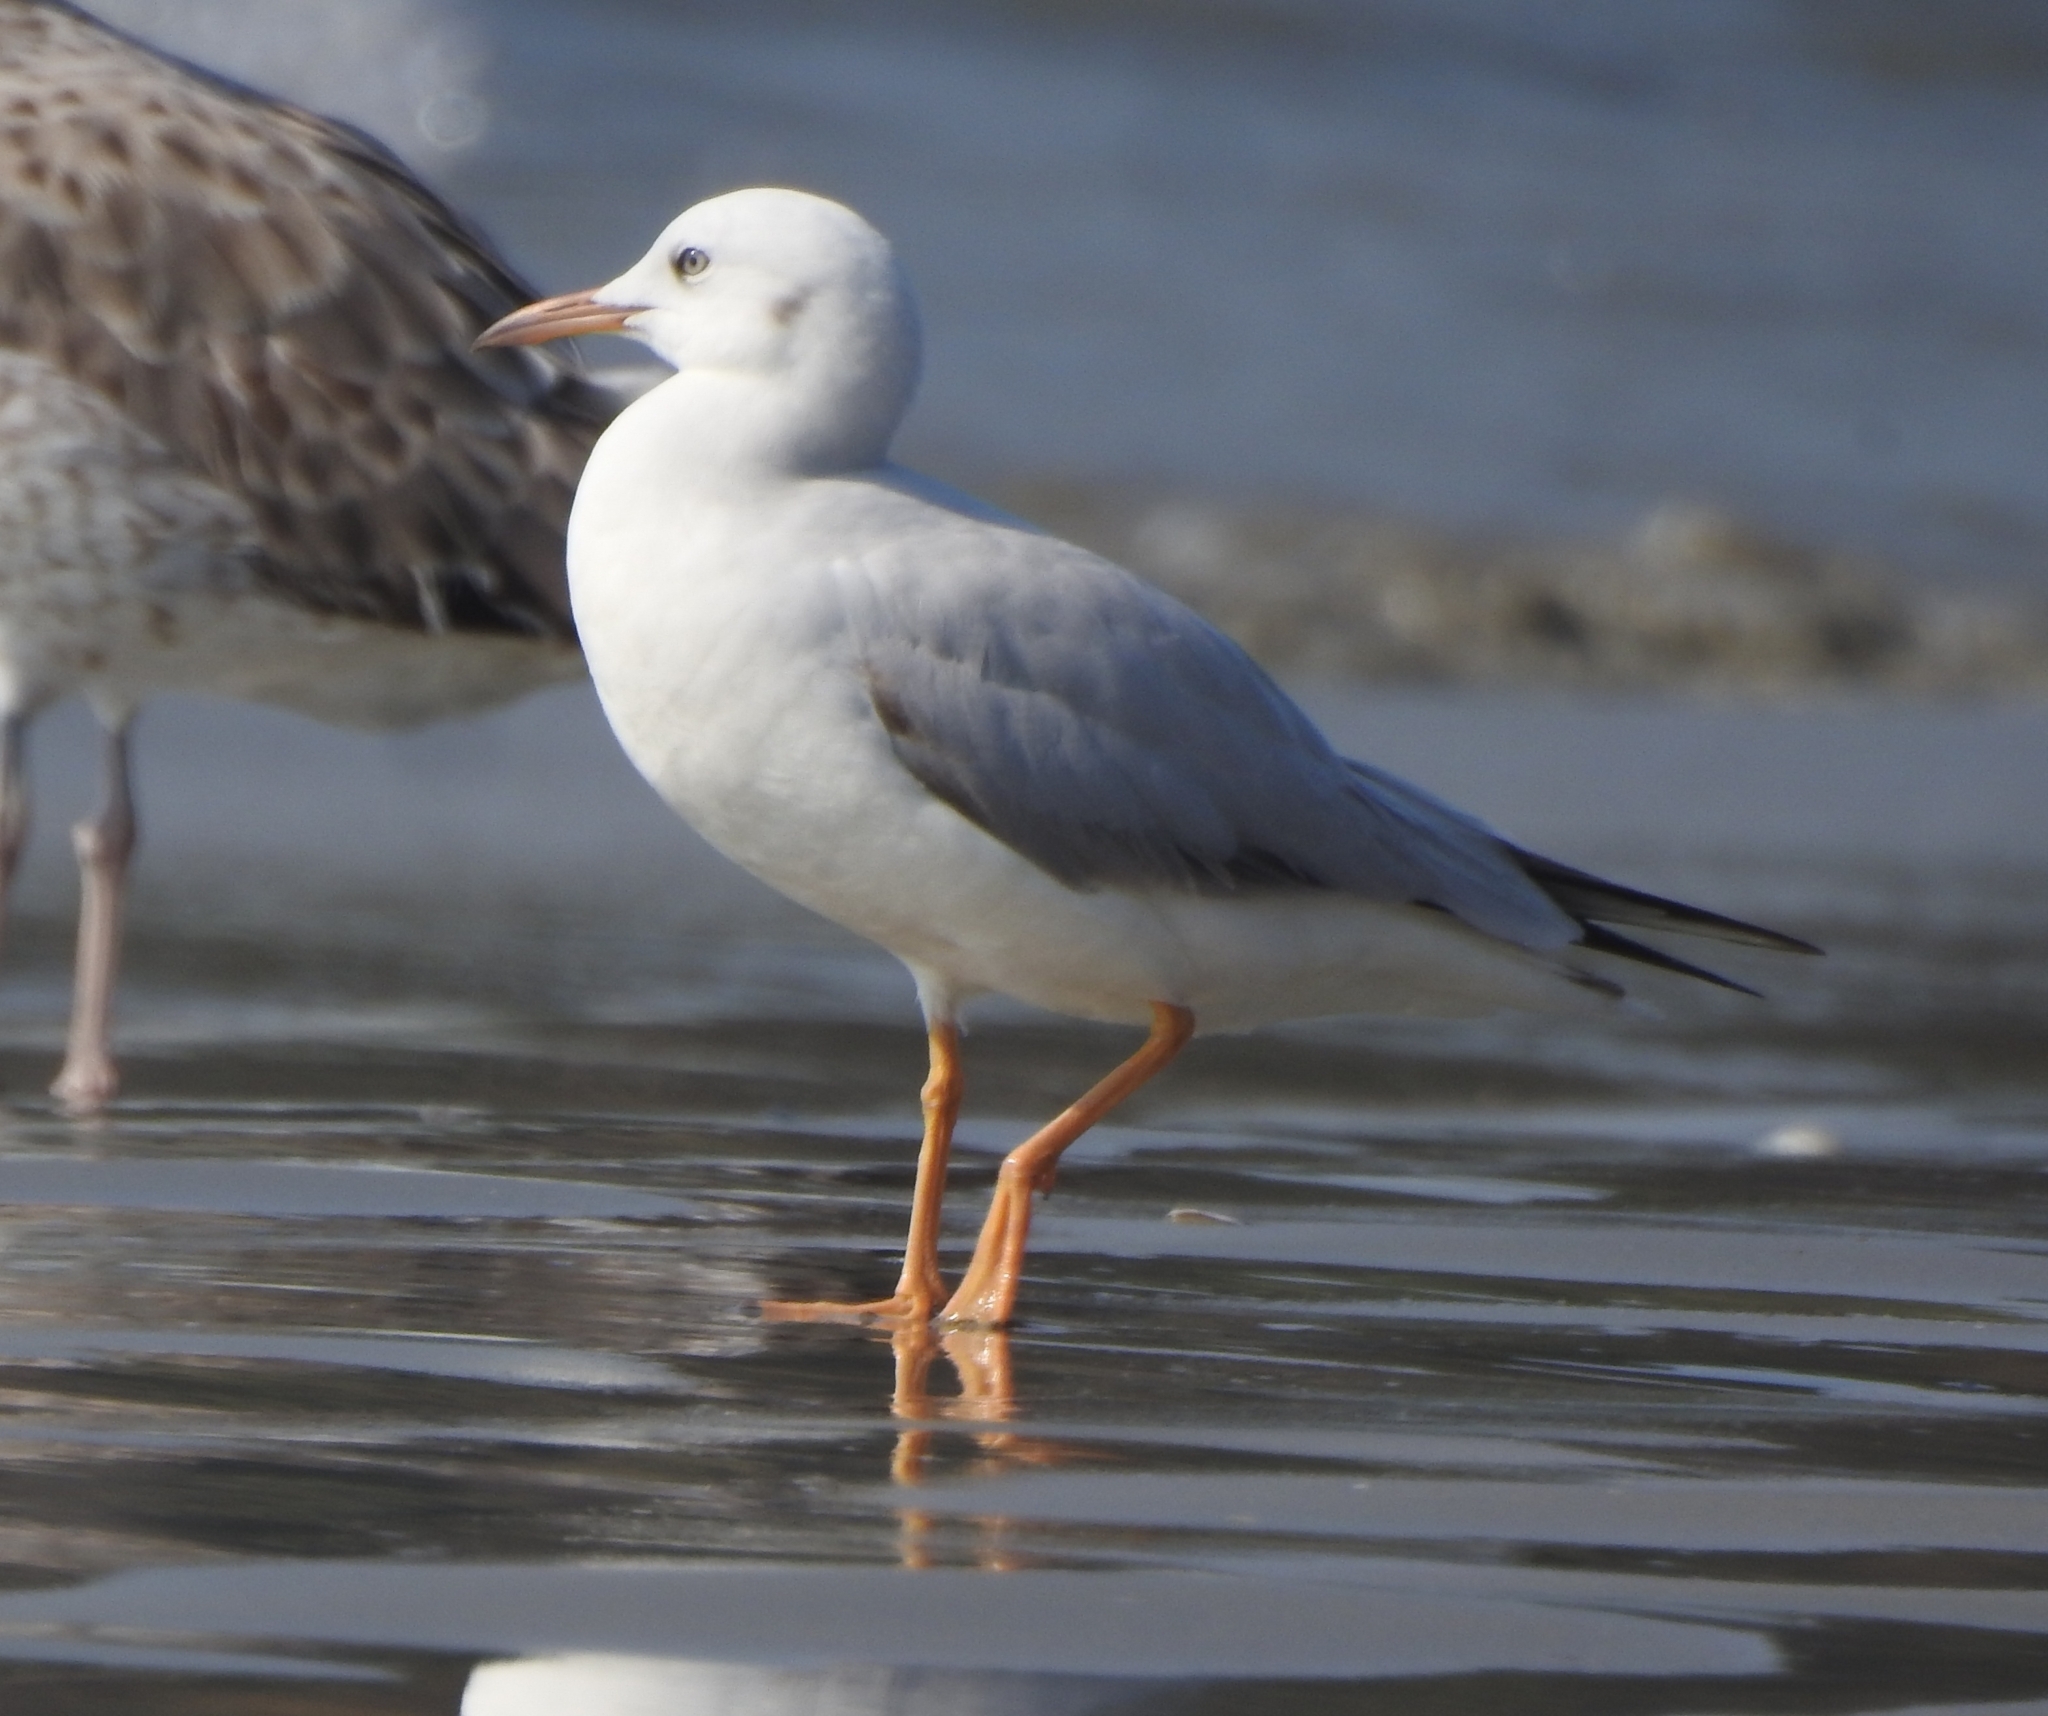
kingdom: Animalia
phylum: Chordata
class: Aves
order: Charadriiformes
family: Laridae
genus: Chroicocephalus
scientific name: Chroicocephalus genei
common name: Slender-billed gull
